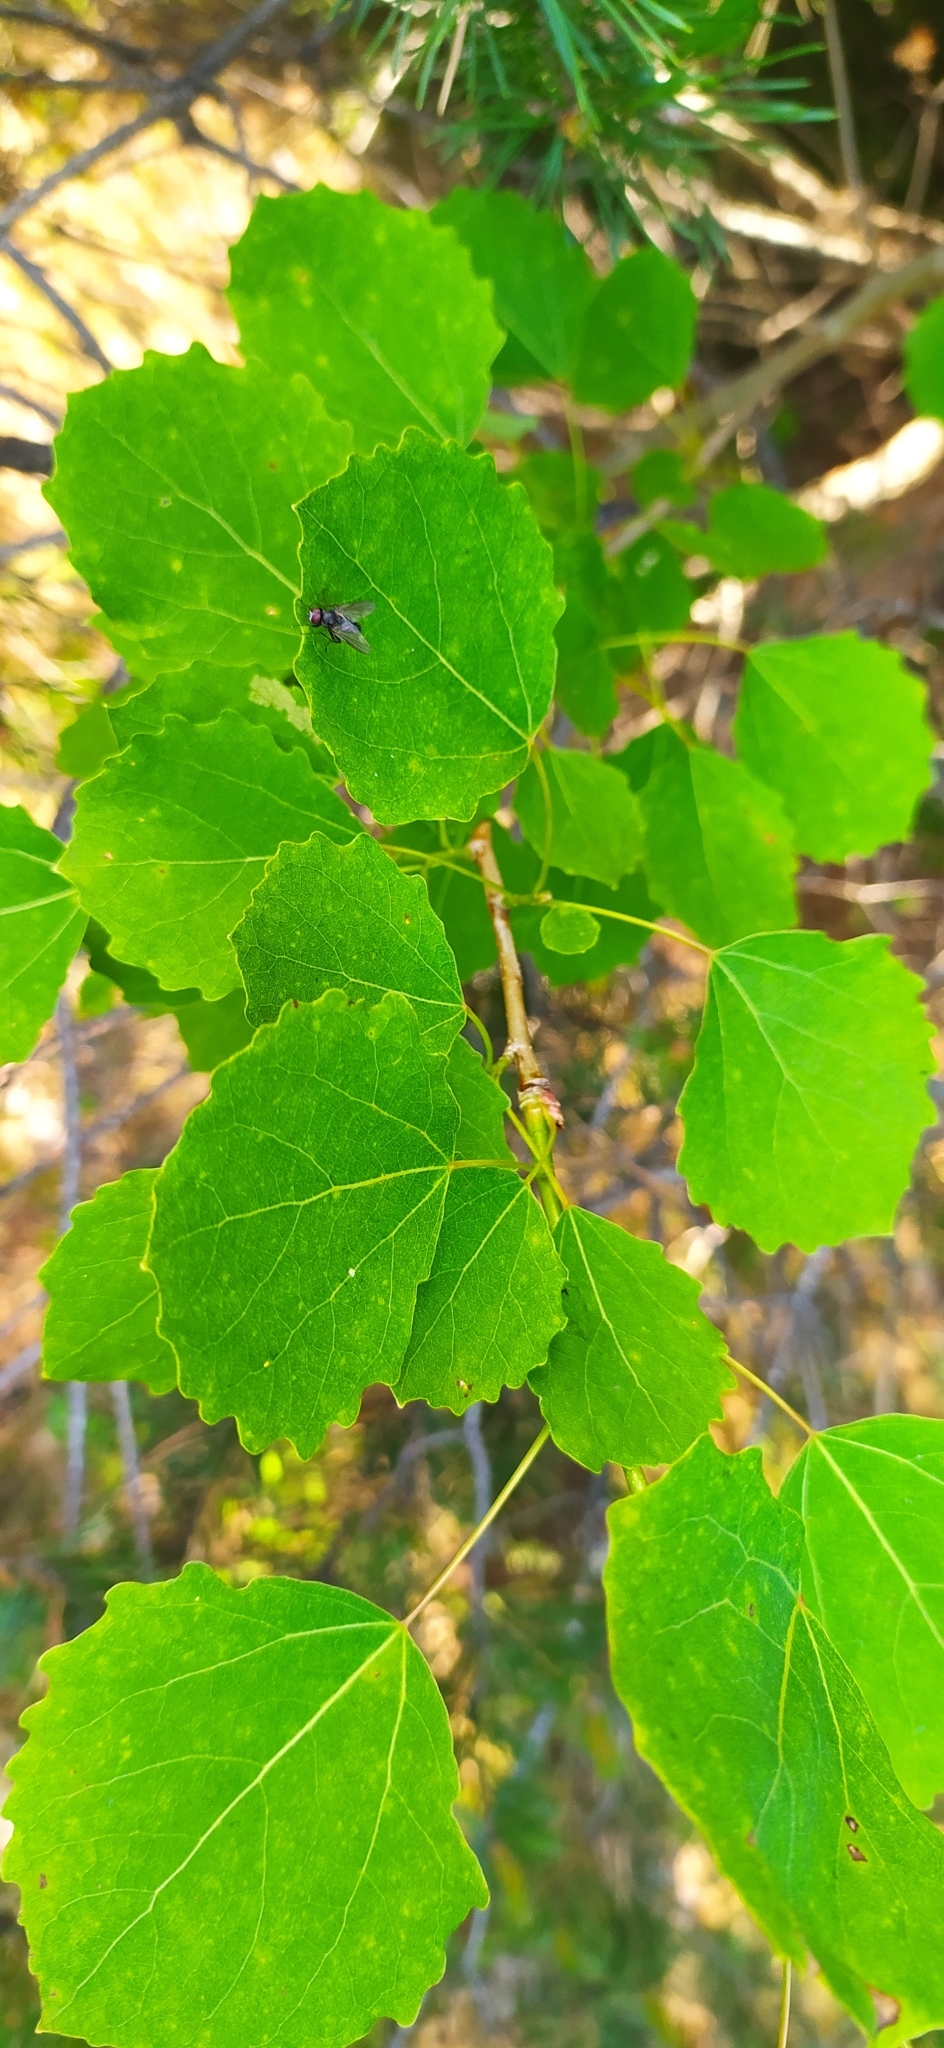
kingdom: Plantae
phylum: Tracheophyta
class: Magnoliopsida
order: Malpighiales
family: Salicaceae
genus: Populus
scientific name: Populus tremula
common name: European aspen
